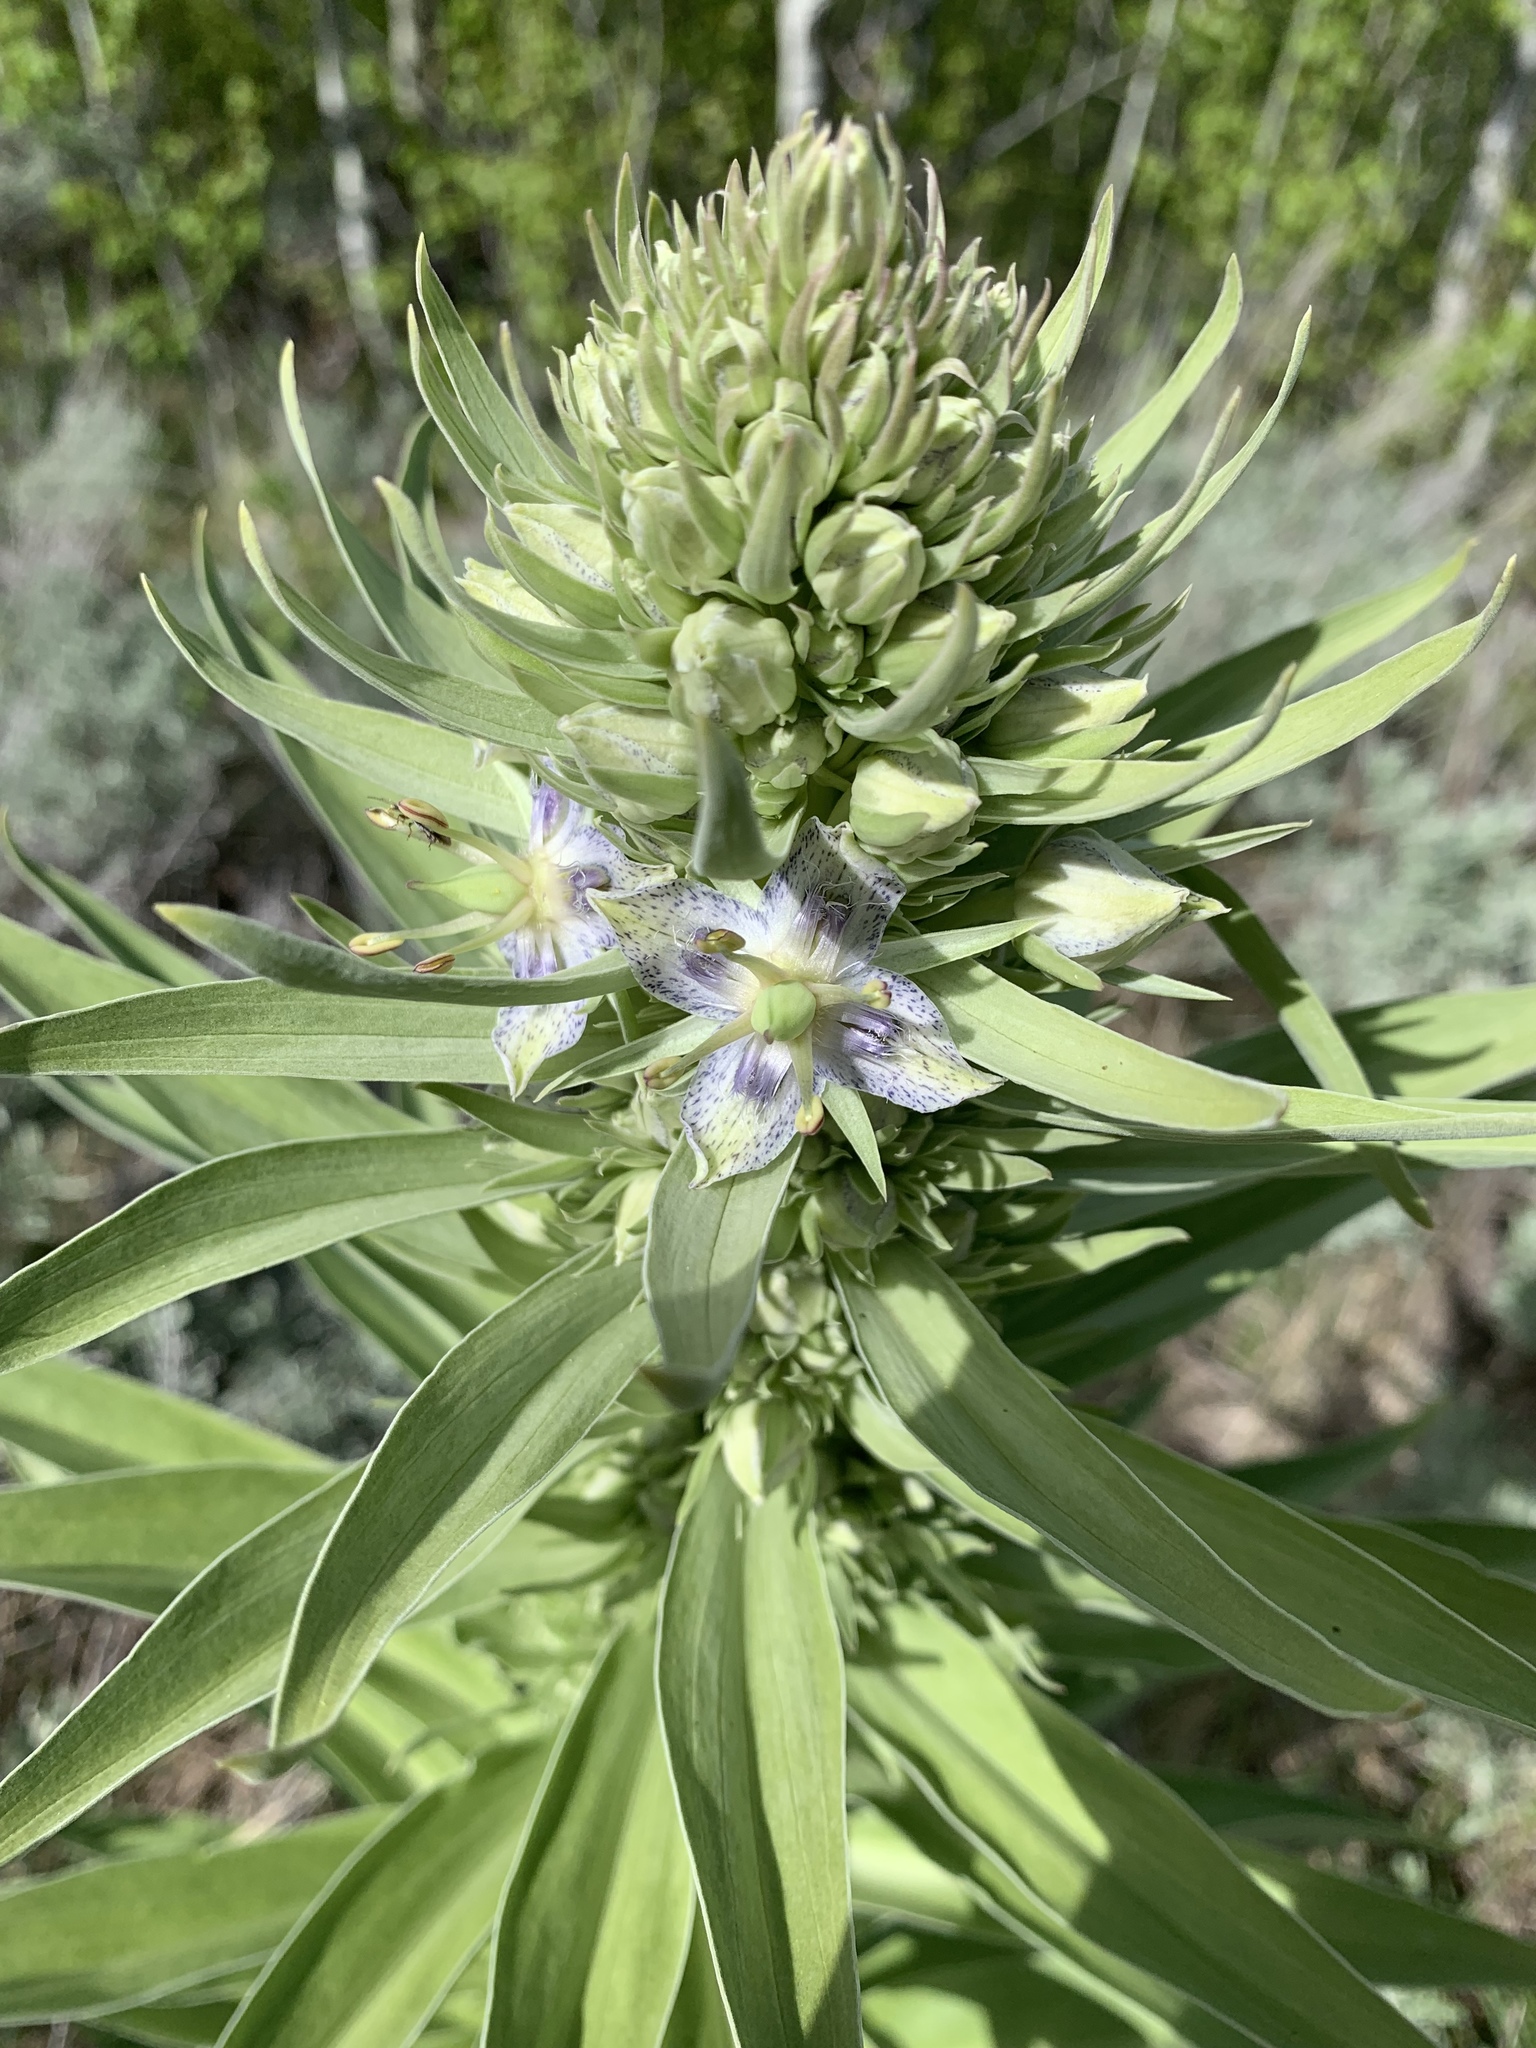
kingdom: Plantae
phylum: Tracheophyta
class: Magnoliopsida
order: Gentianales
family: Gentianaceae
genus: Frasera
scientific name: Frasera speciosa
